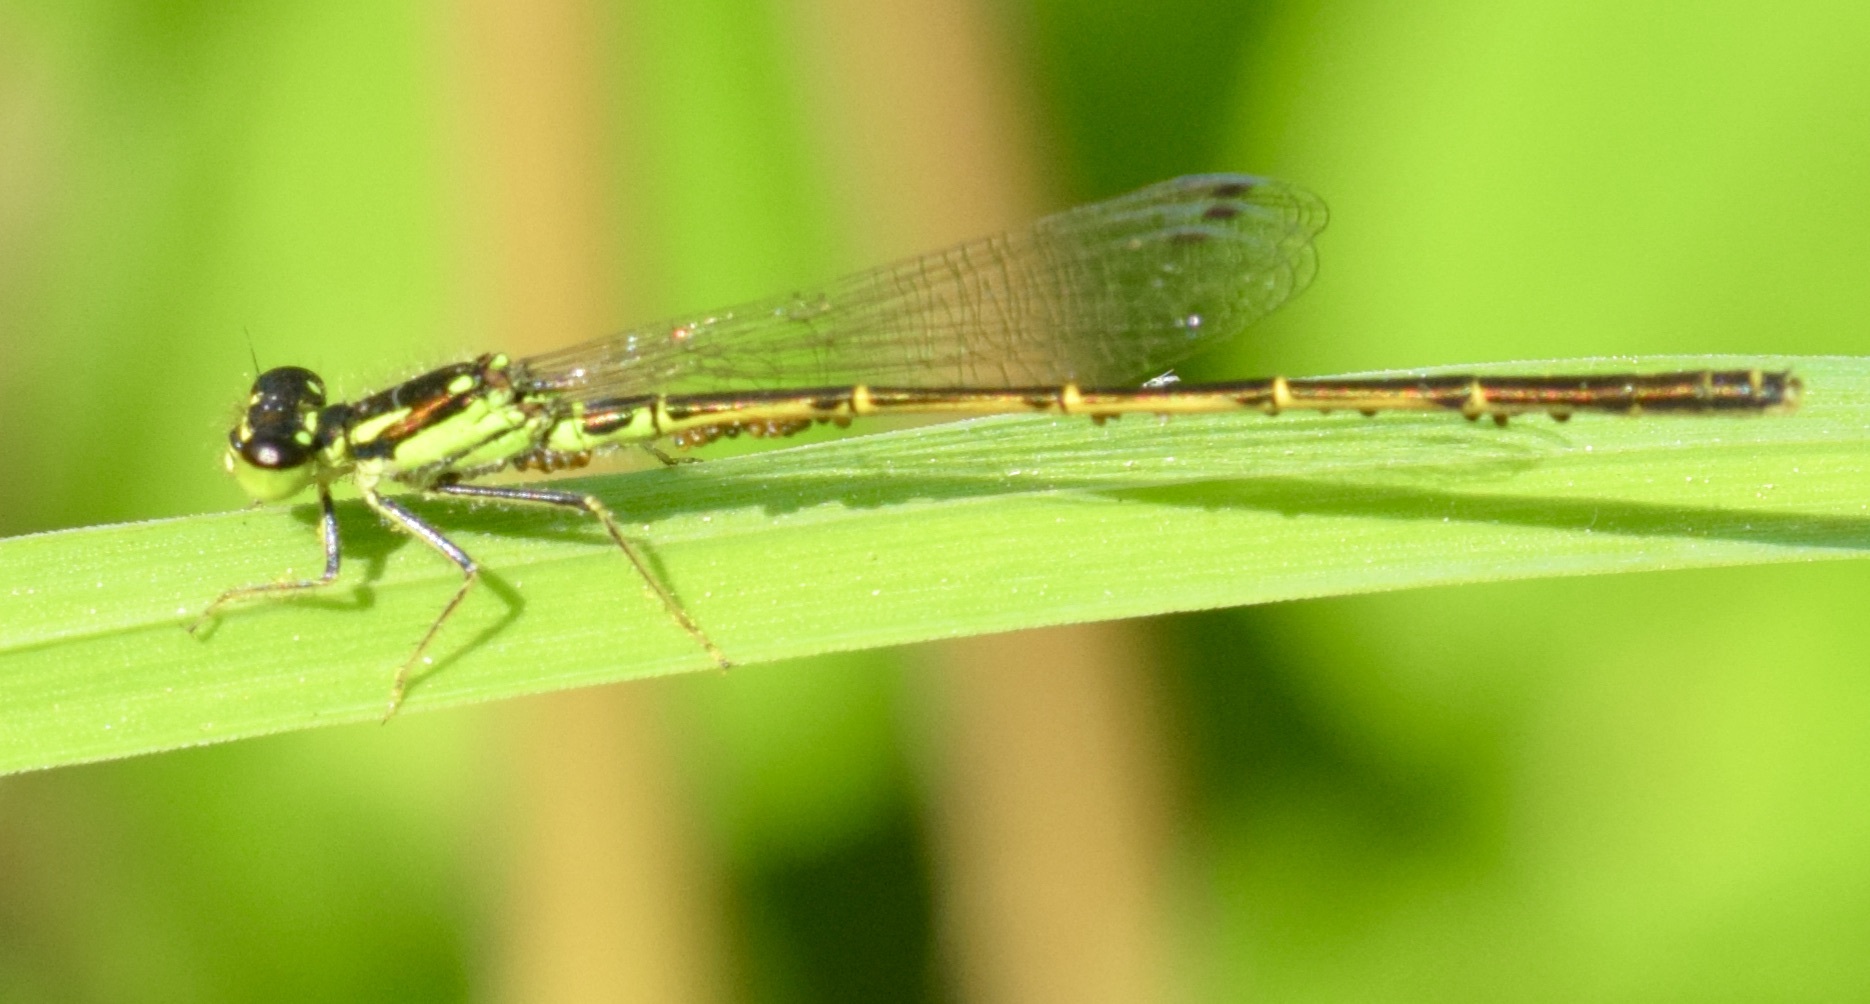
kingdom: Animalia
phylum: Arthropoda
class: Insecta
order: Odonata
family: Coenagrionidae
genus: Ischnura
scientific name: Ischnura posita
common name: Fragile forktail
